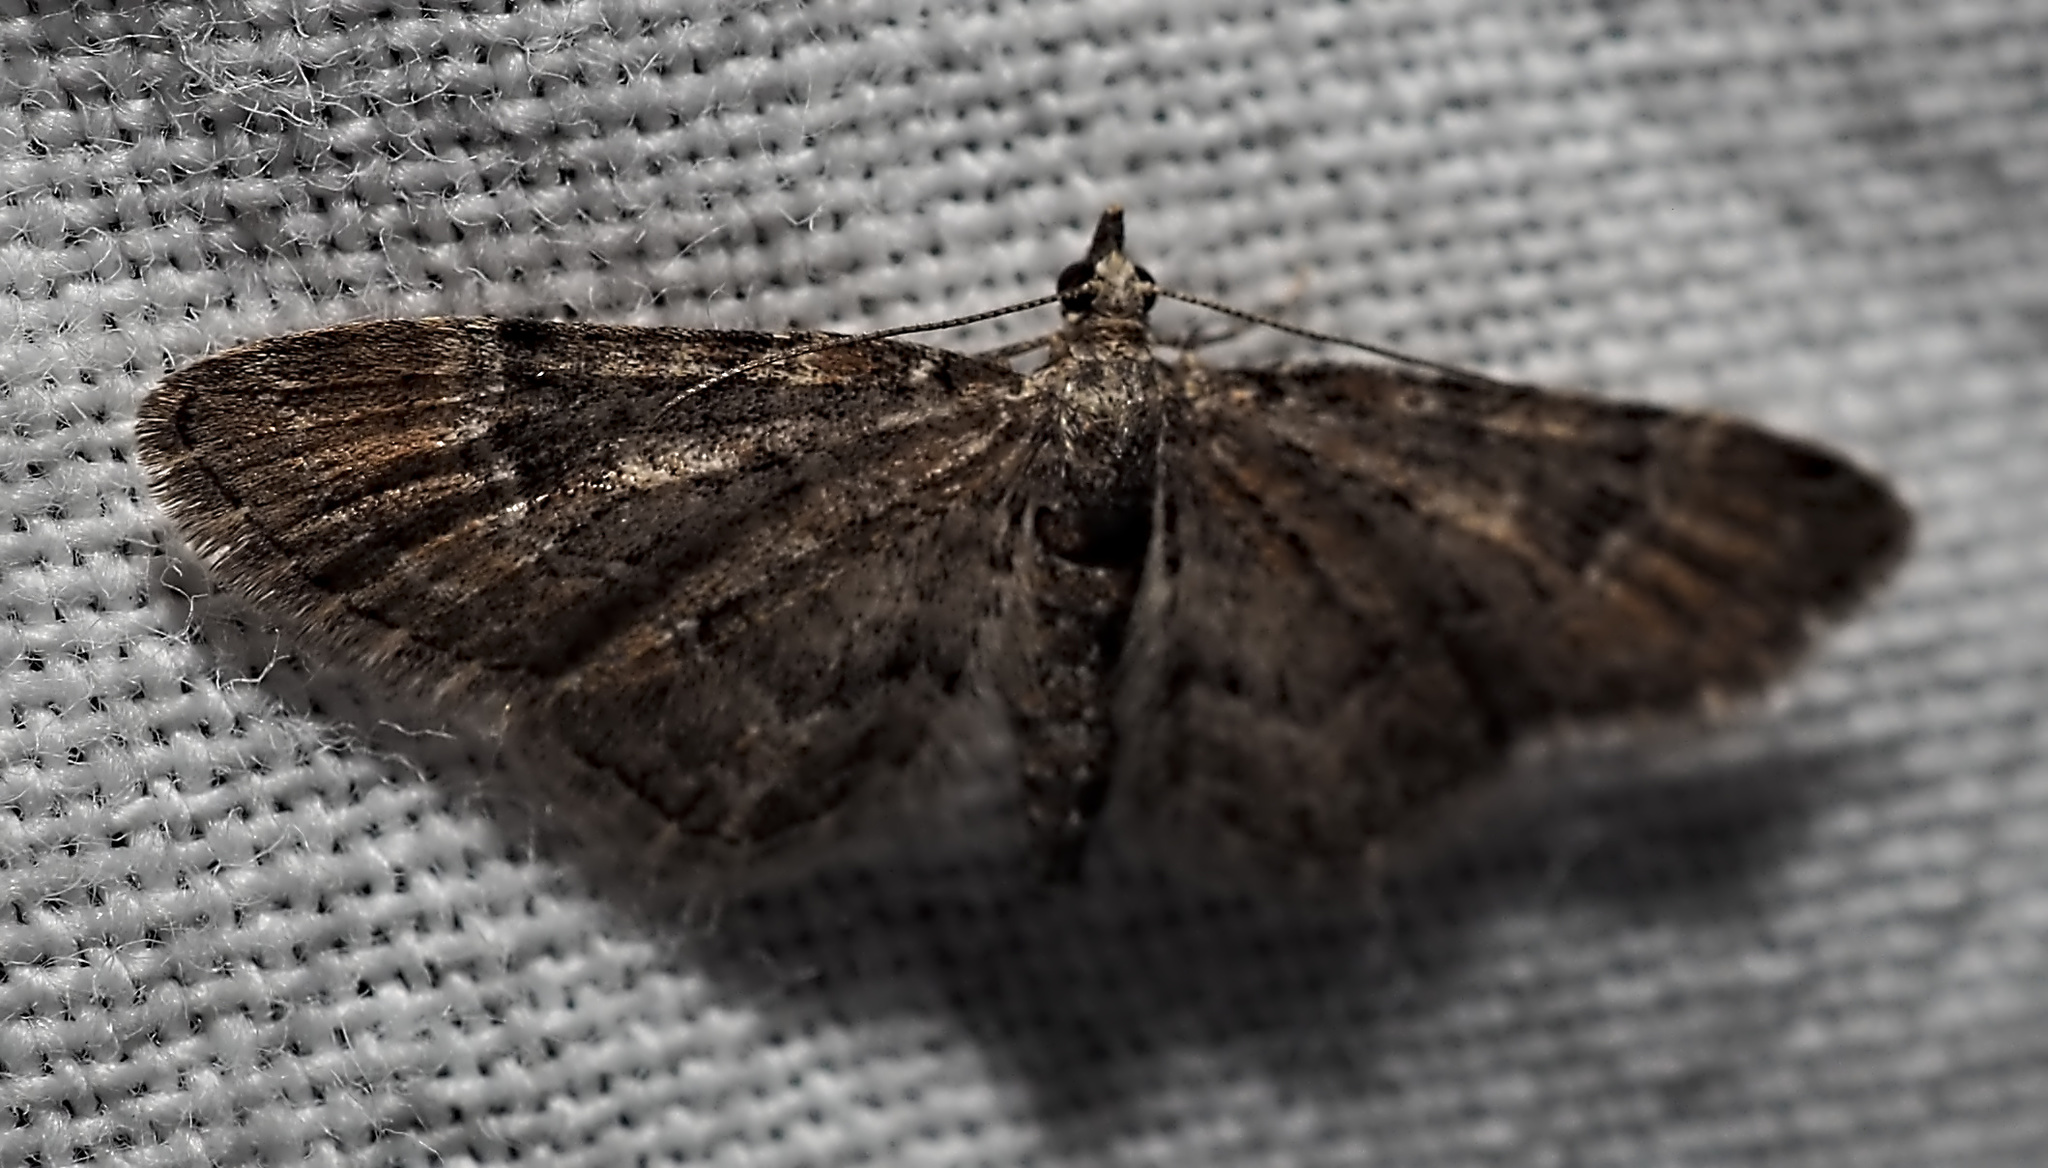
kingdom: Animalia
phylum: Arthropoda
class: Insecta
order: Lepidoptera
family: Geometridae
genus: Gymnoscelis
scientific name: Gymnoscelis rufifasciata
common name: Double-striped pug
